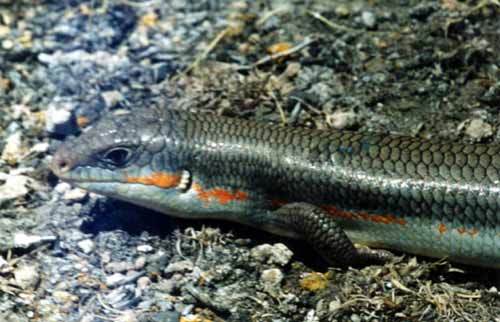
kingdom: Animalia
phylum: Chordata
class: Squamata
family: Scincidae
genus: Eumeces
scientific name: Eumeces schneiderii
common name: Schneider's skink
